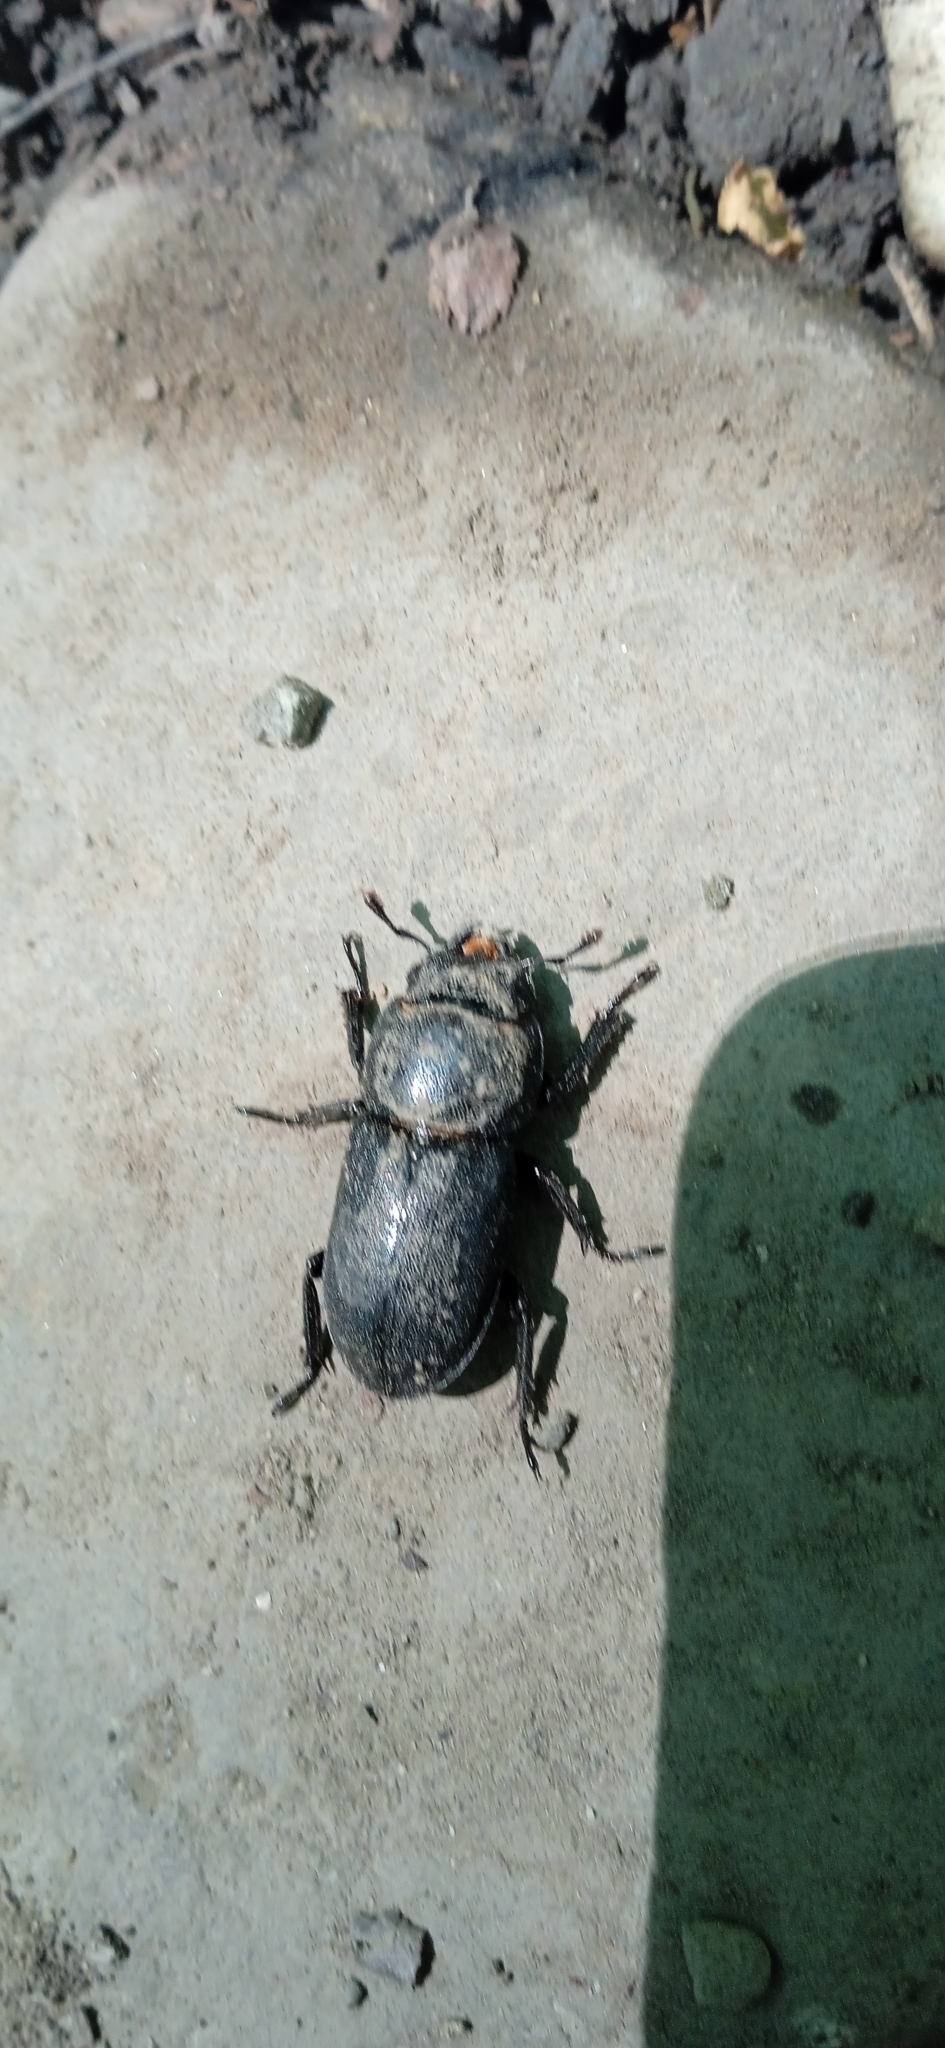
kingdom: Animalia
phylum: Arthropoda
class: Insecta
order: Coleoptera
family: Lucanidae
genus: Dorcus
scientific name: Dorcus parallelipipedus
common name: Lesser stag beetle
